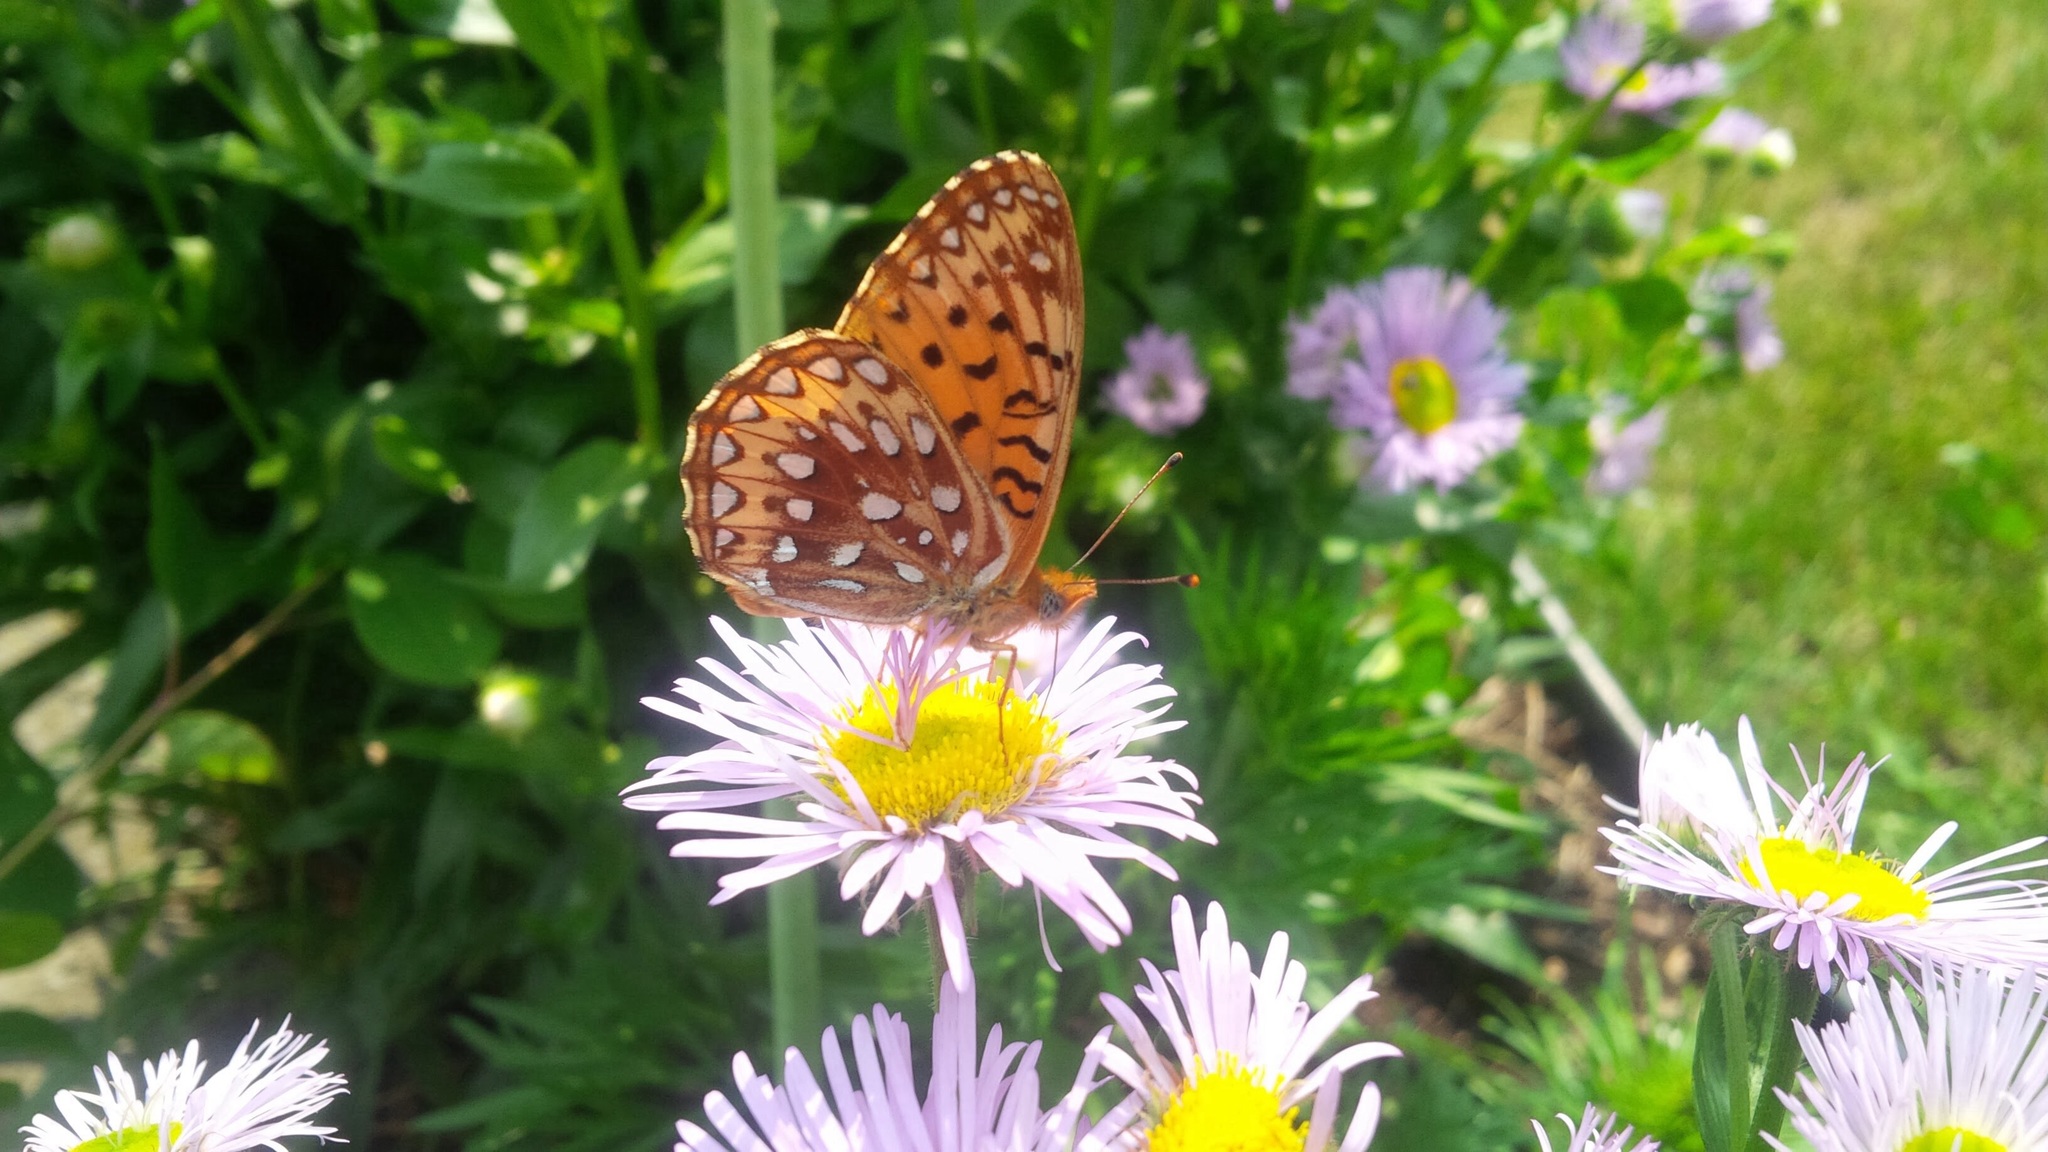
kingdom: Animalia
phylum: Arthropoda
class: Insecta
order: Lepidoptera
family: Nymphalidae
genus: Speyeria
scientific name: Speyeria atlantis
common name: Atlantis fritillary
